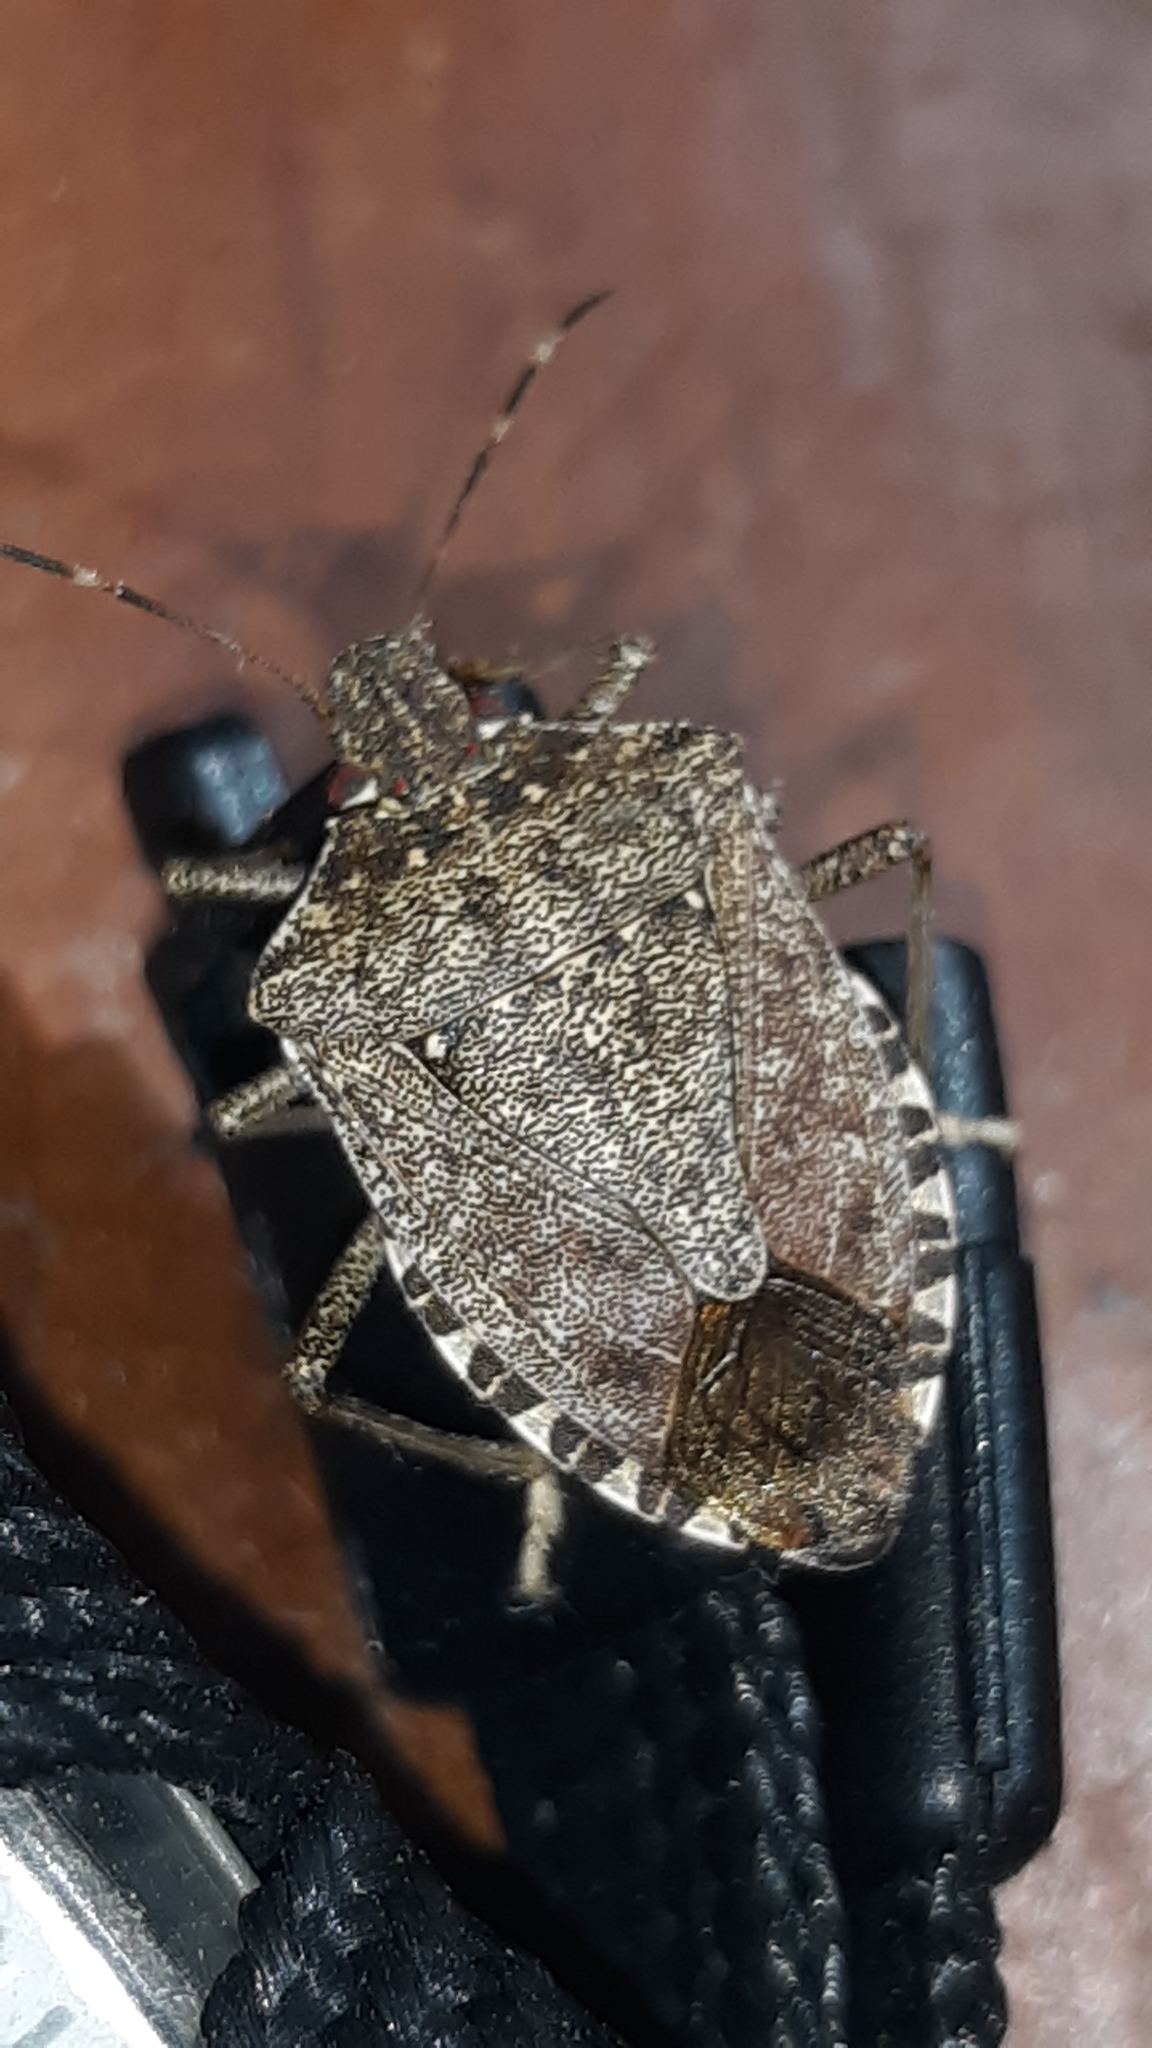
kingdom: Animalia
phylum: Arthropoda
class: Insecta
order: Hemiptera
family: Pentatomidae
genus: Halyomorpha
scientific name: Halyomorpha halys
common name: Brown marmorated stink bug
